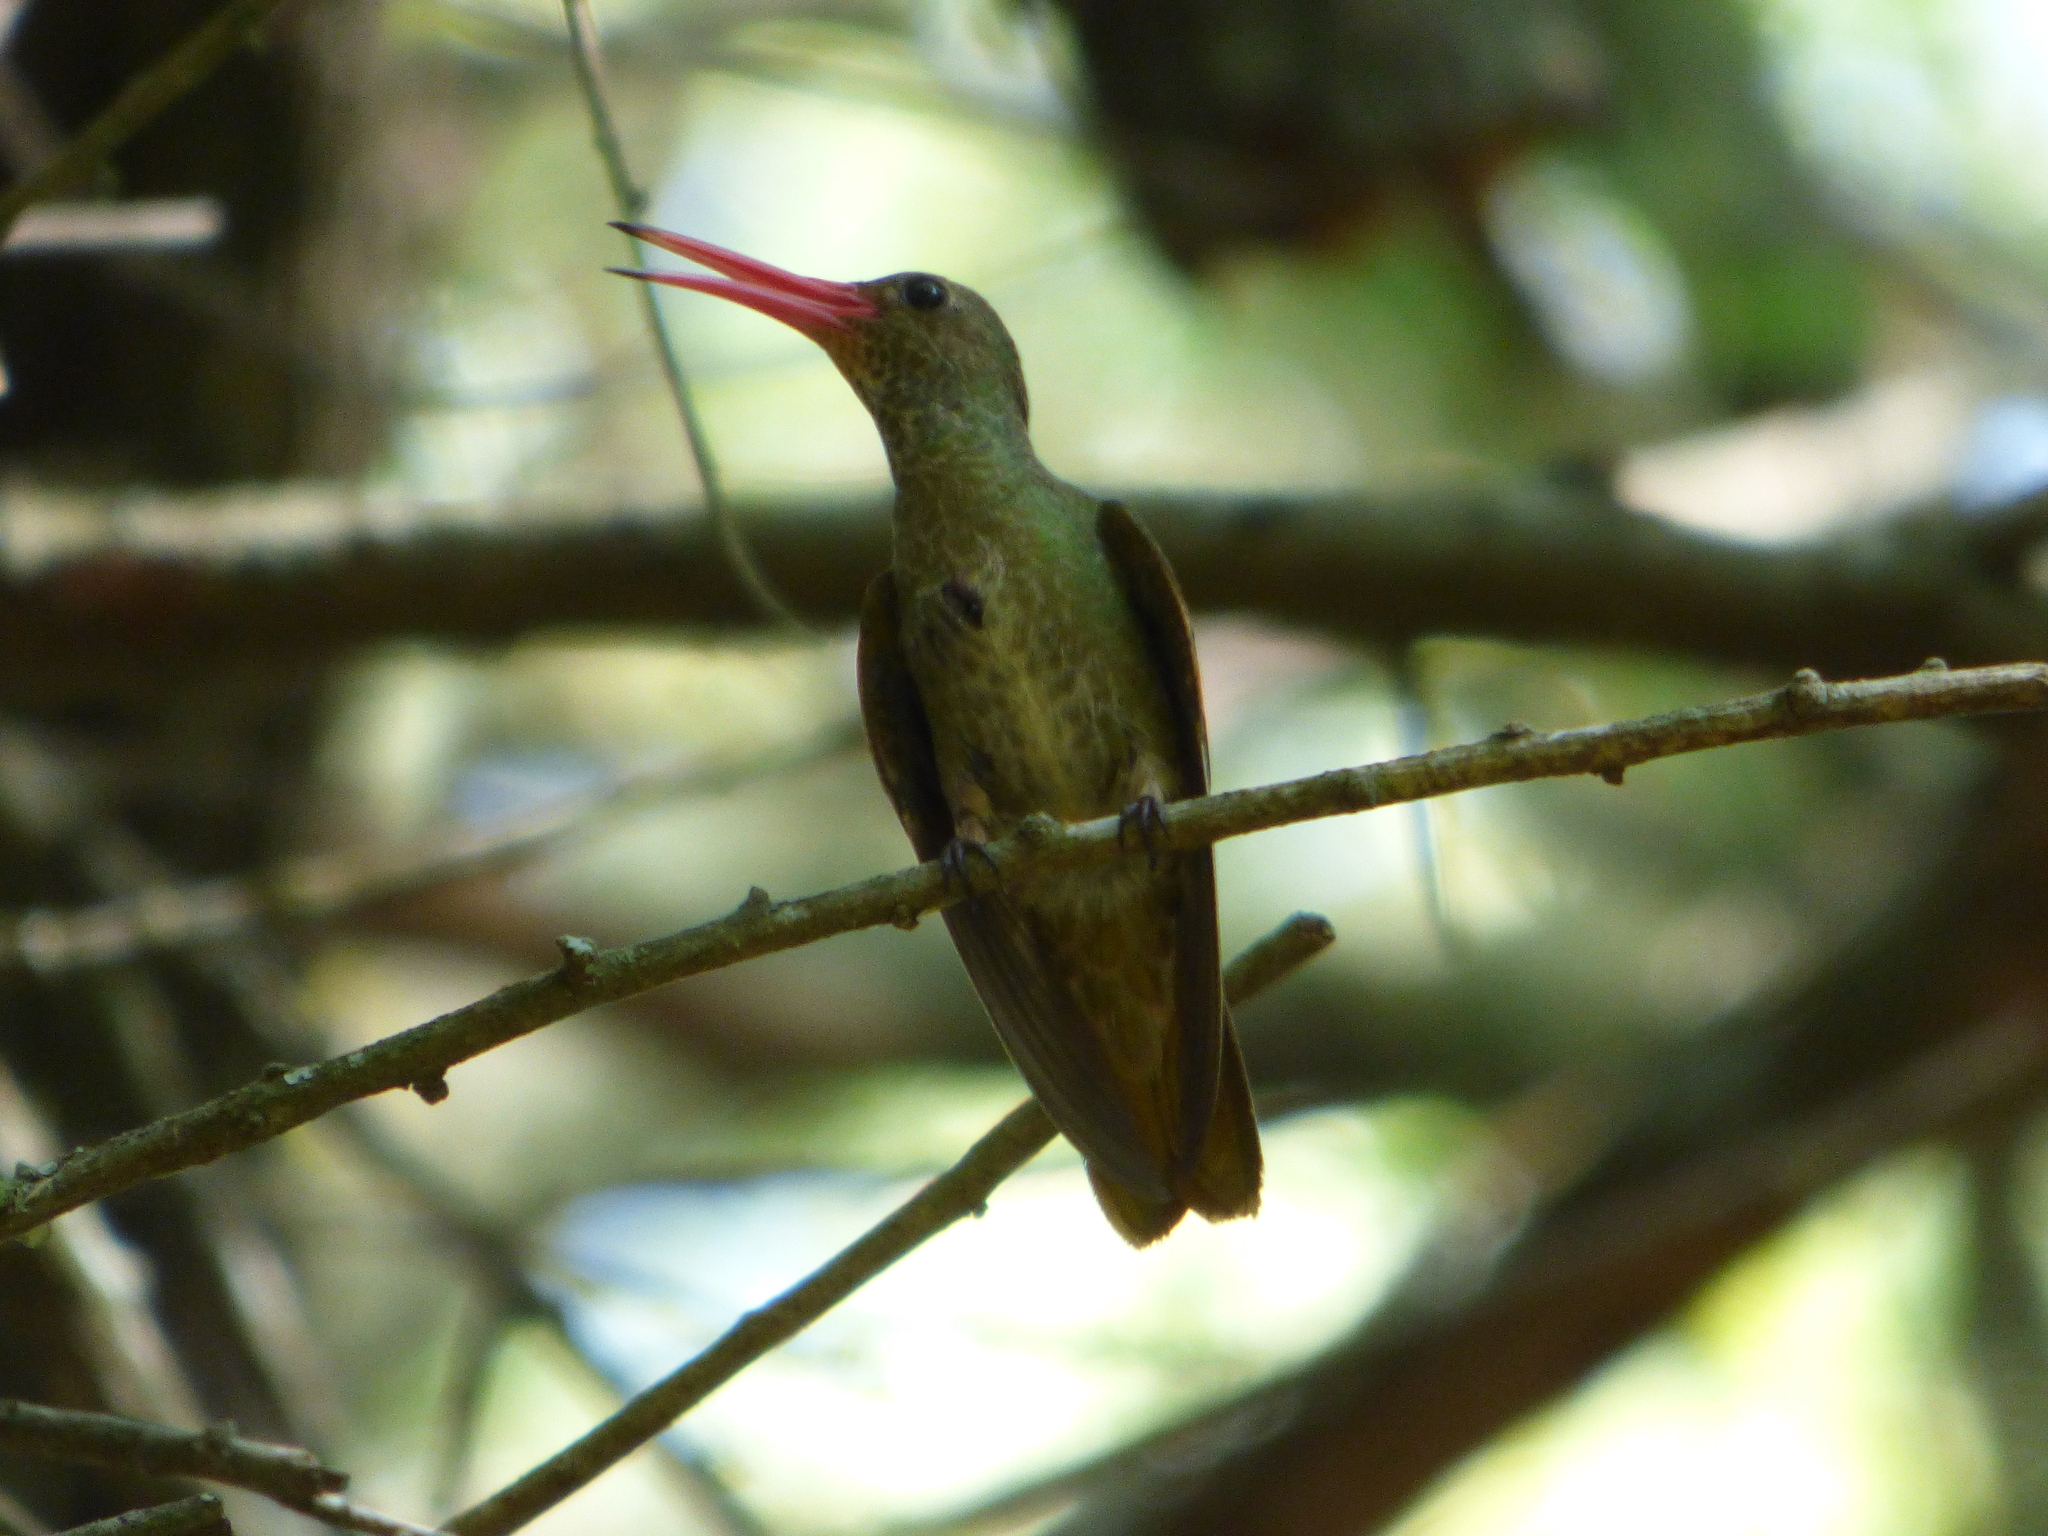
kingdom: Animalia
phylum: Chordata
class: Aves
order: Apodiformes
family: Trochilidae
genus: Hylocharis
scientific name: Hylocharis chrysura
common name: Gilded sapphire
